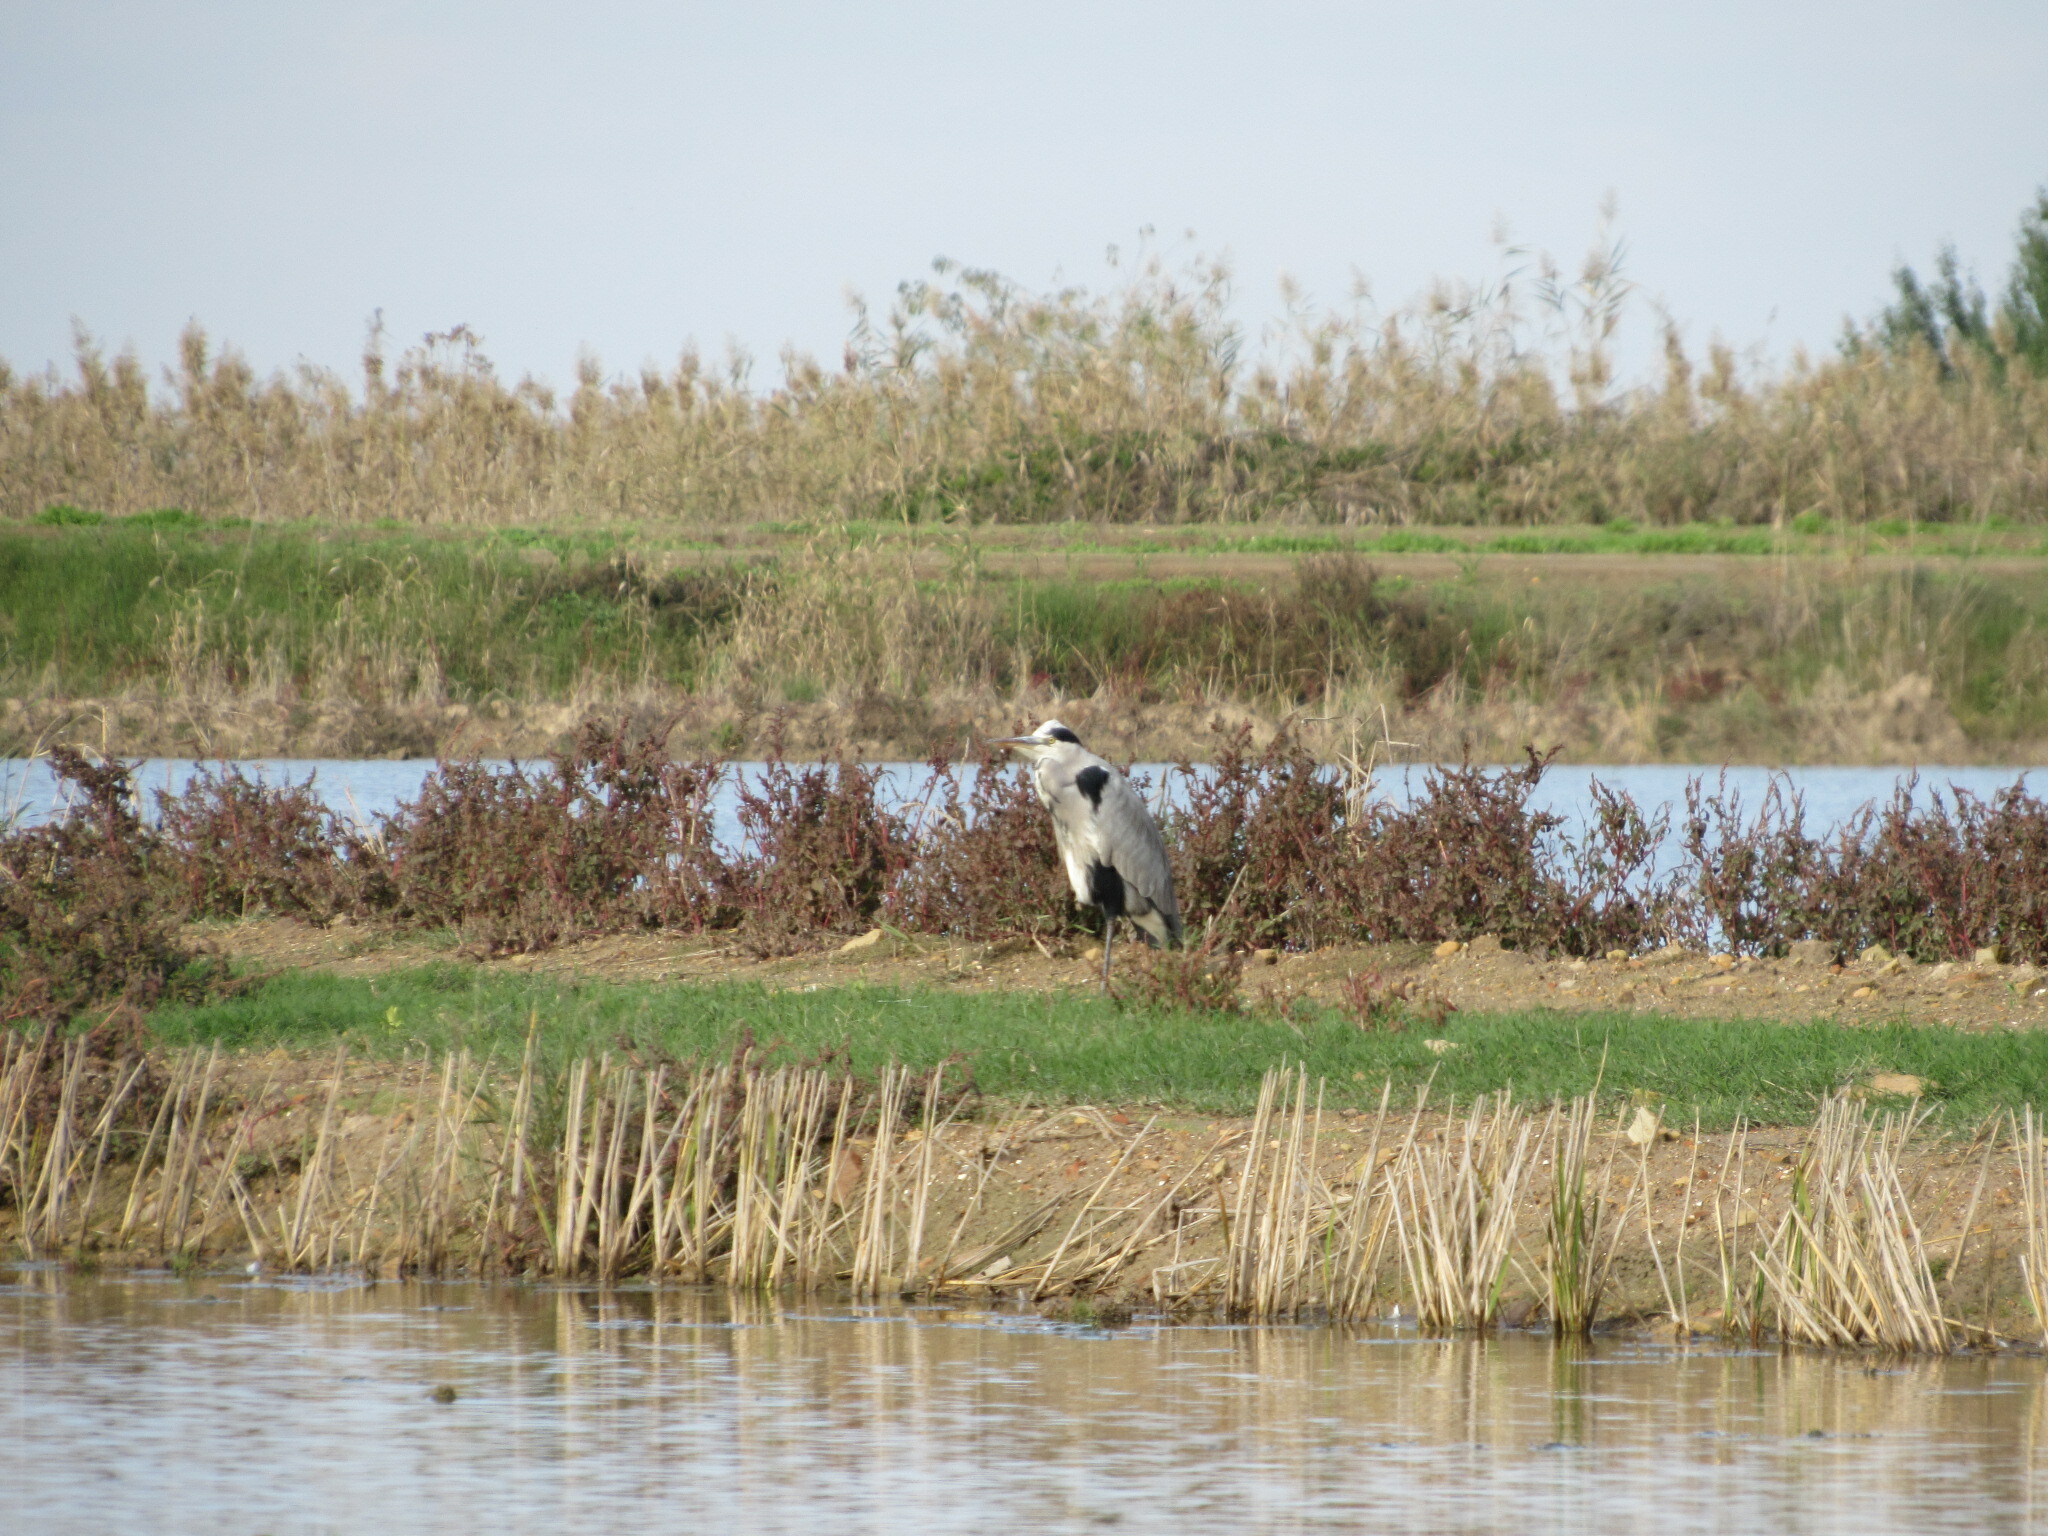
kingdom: Animalia
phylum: Chordata
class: Aves
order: Pelecaniformes
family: Ardeidae
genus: Ardea
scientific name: Ardea cinerea
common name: Grey heron
